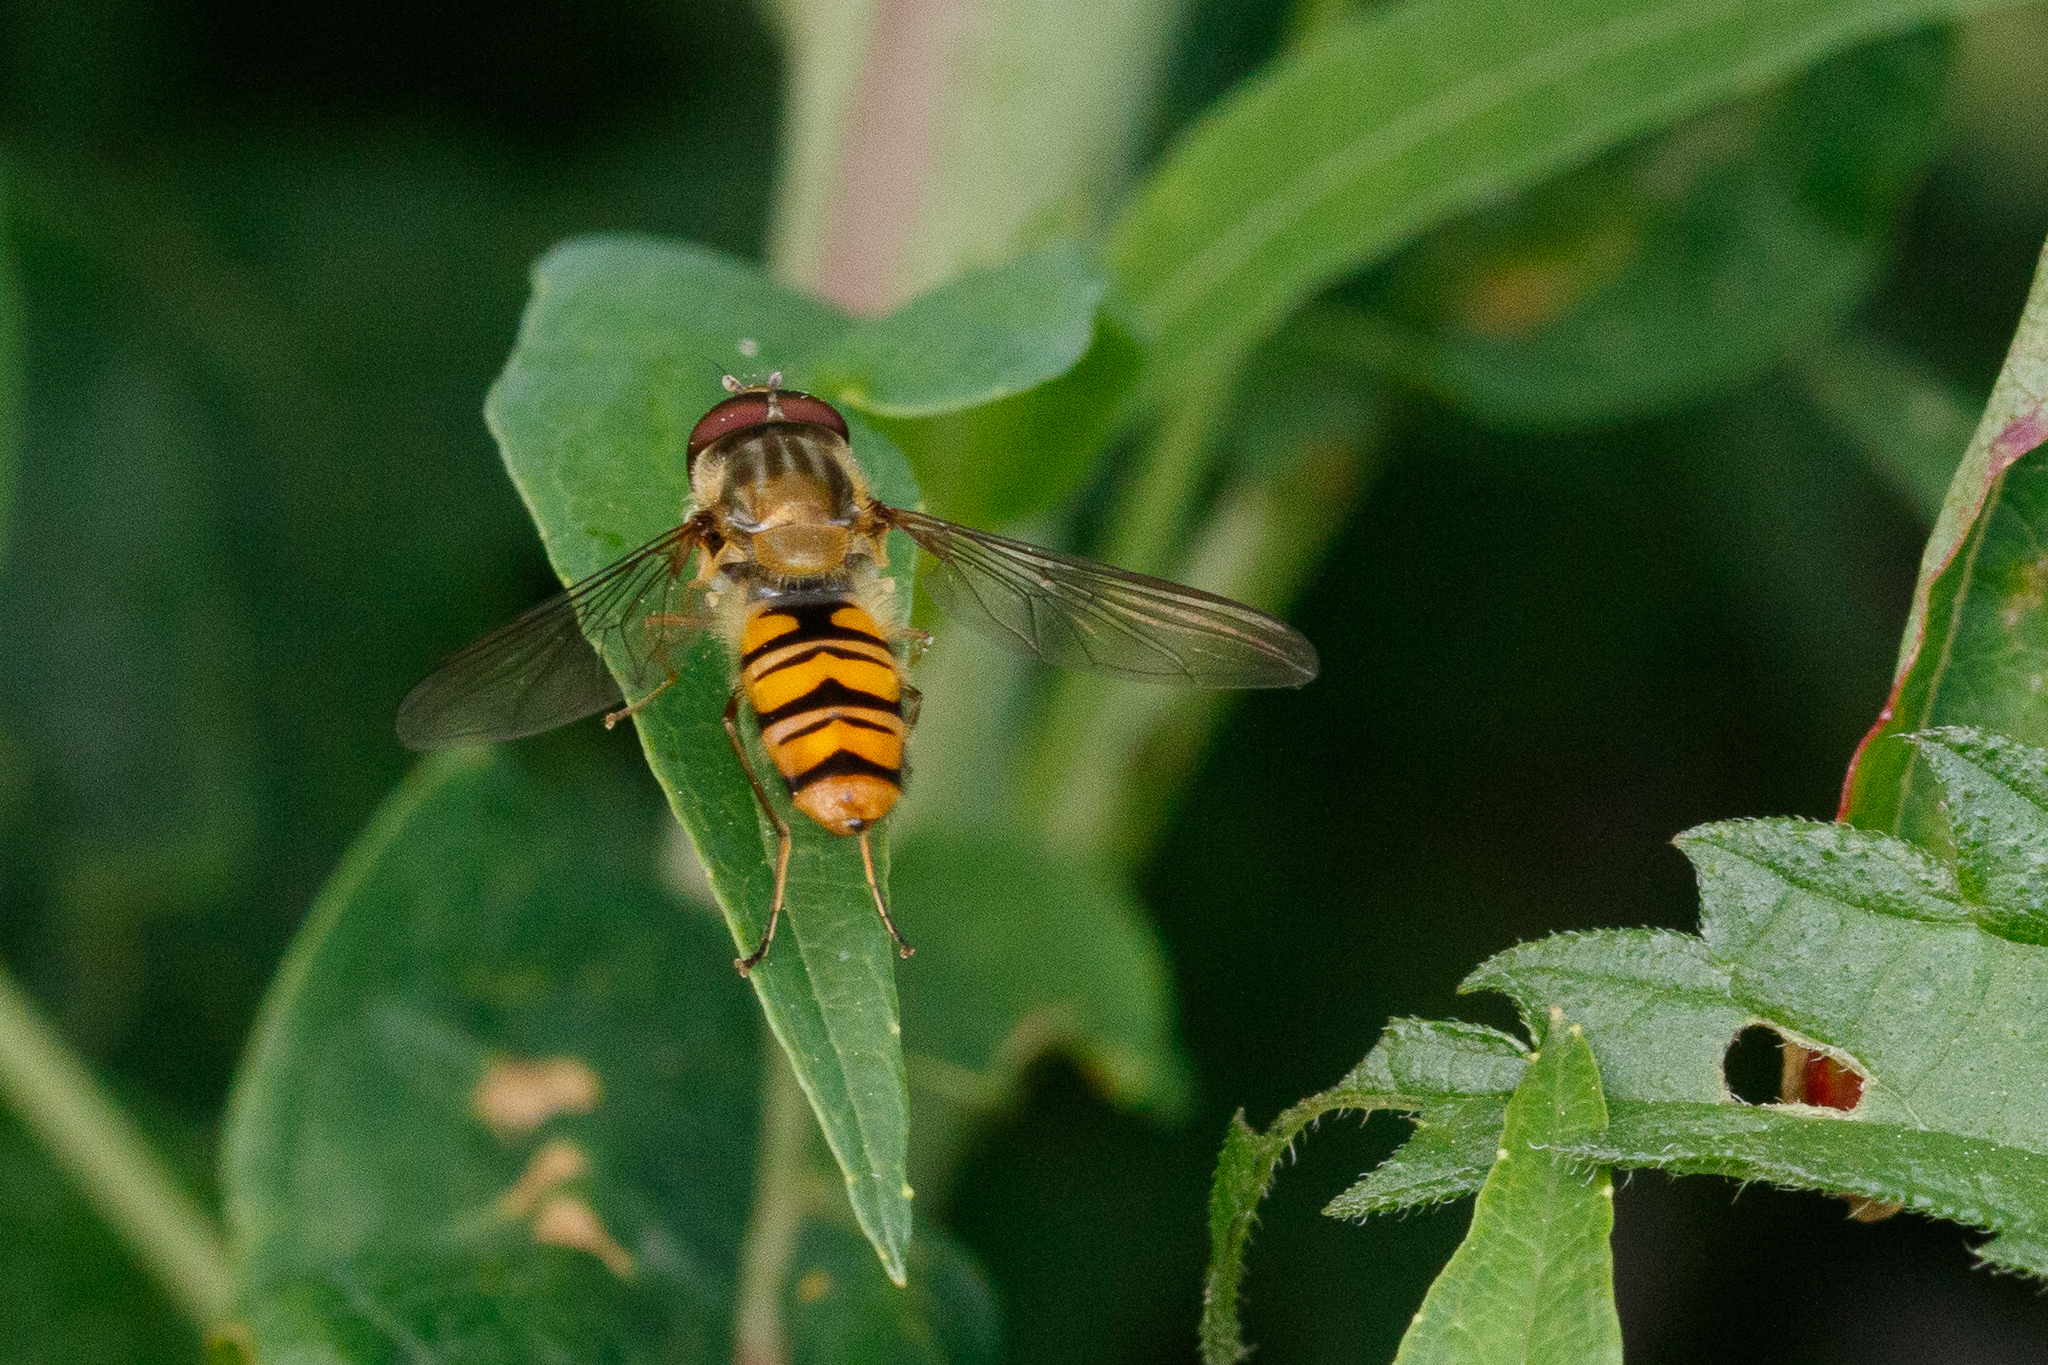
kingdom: Animalia
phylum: Arthropoda
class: Insecta
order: Diptera
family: Syrphidae
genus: Episyrphus
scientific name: Episyrphus balteatus
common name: Marmalade hoverfly
